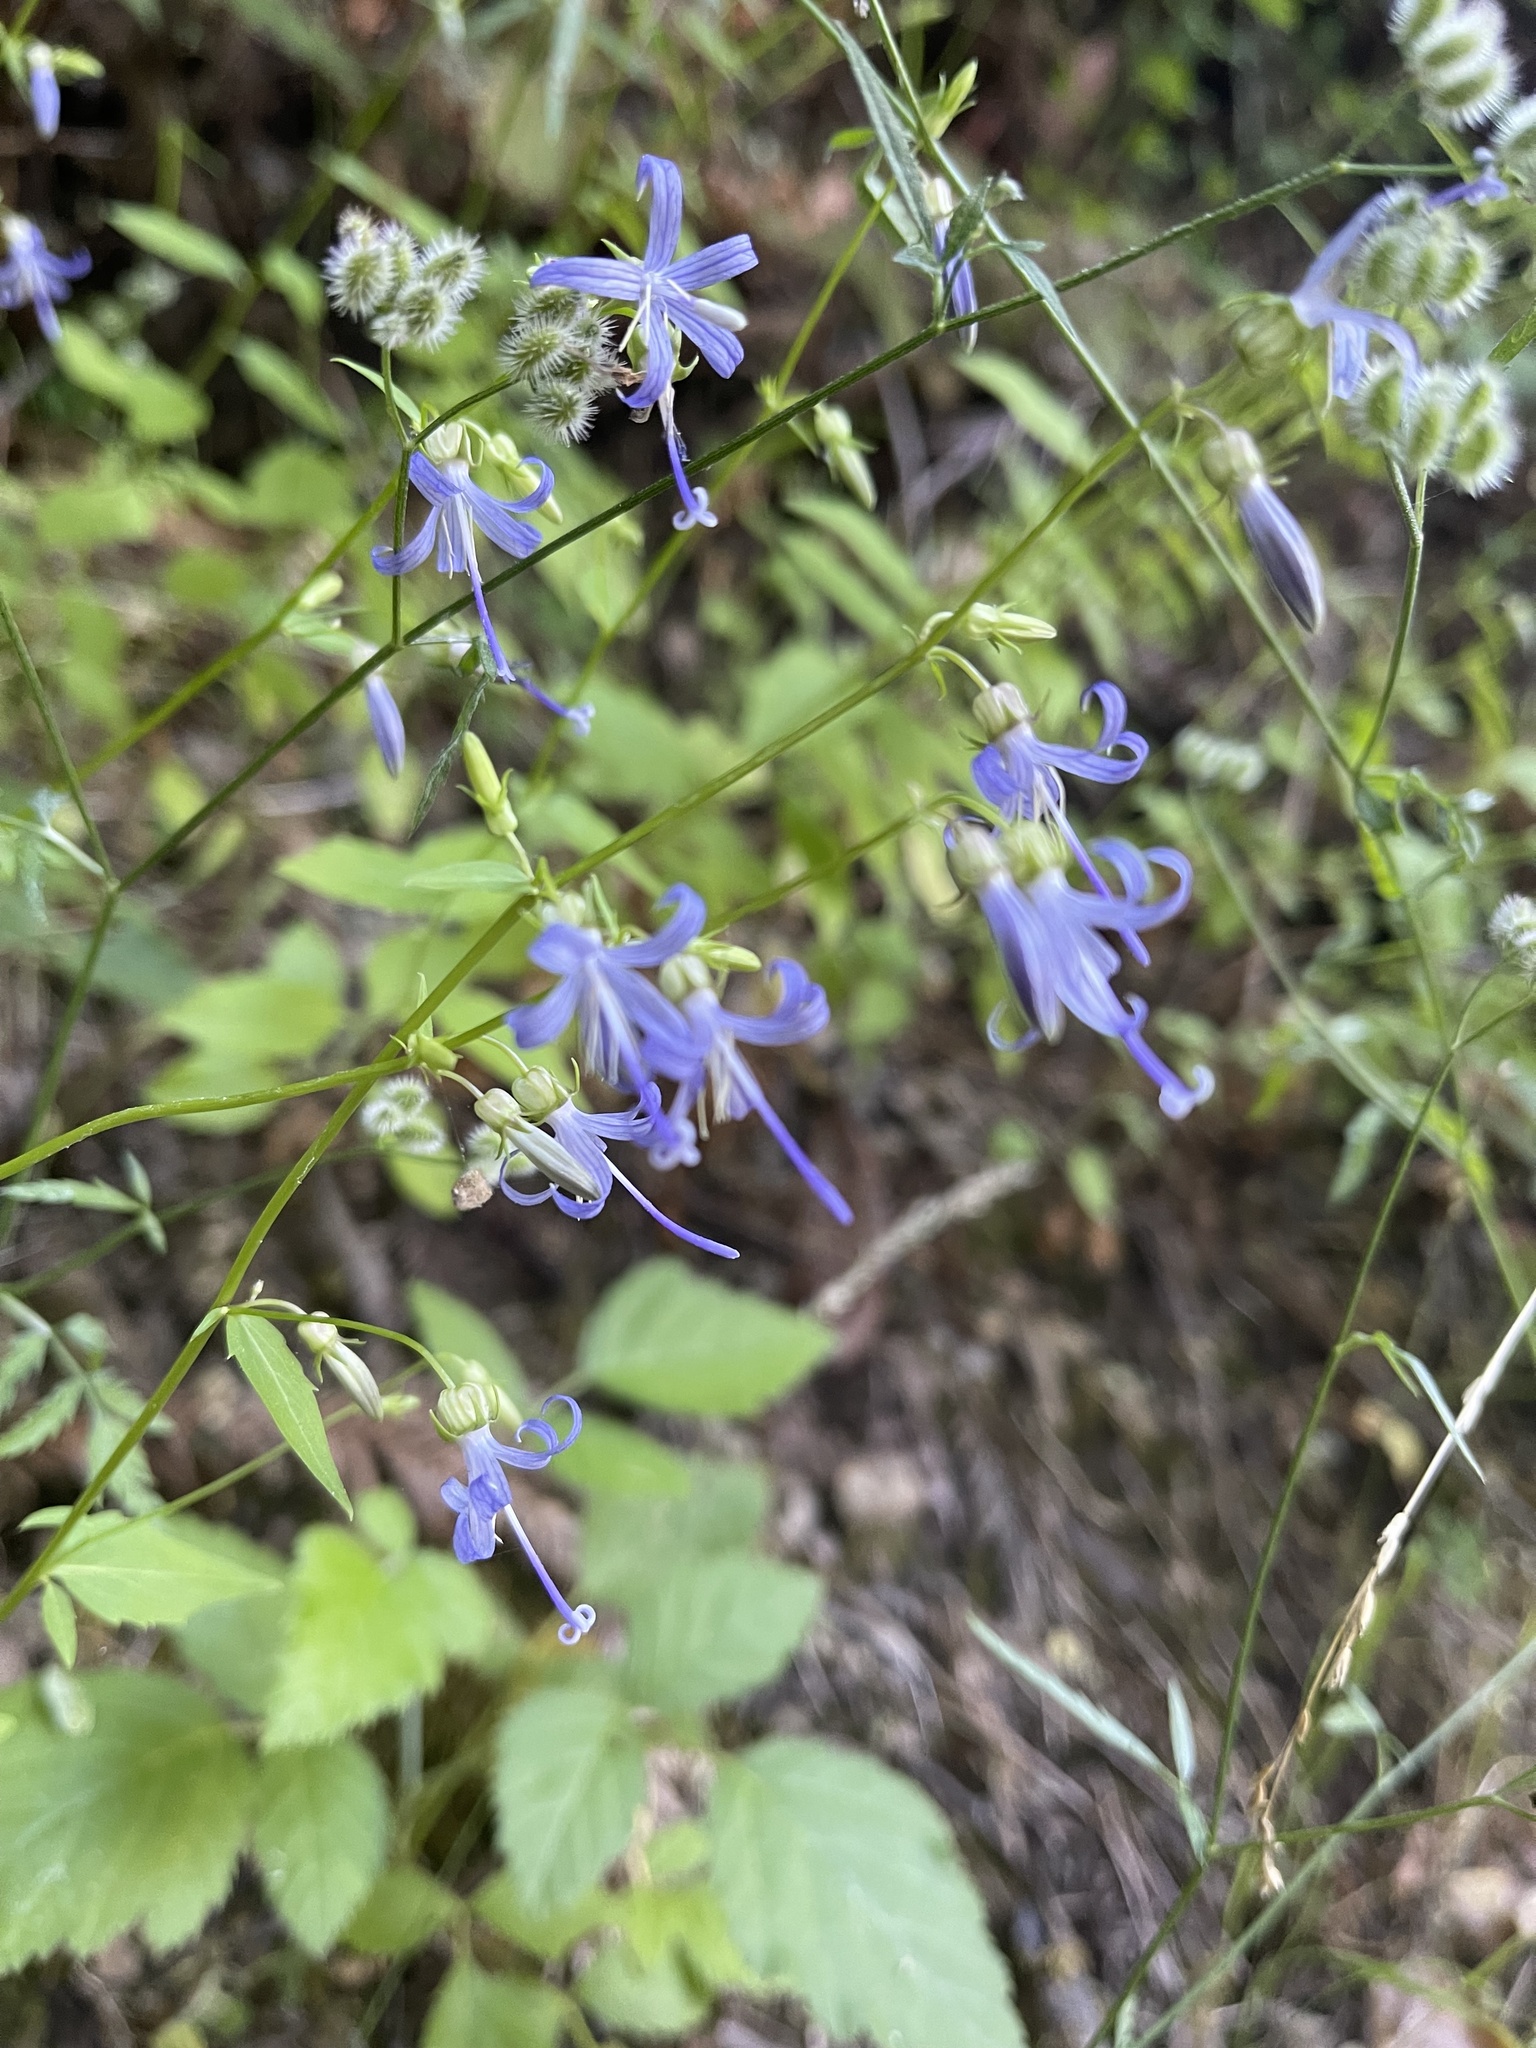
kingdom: Plantae
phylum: Tracheophyta
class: Magnoliopsida
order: Asterales
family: Campanulaceae
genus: Smithiastrum
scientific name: Smithiastrum prenanthoides
